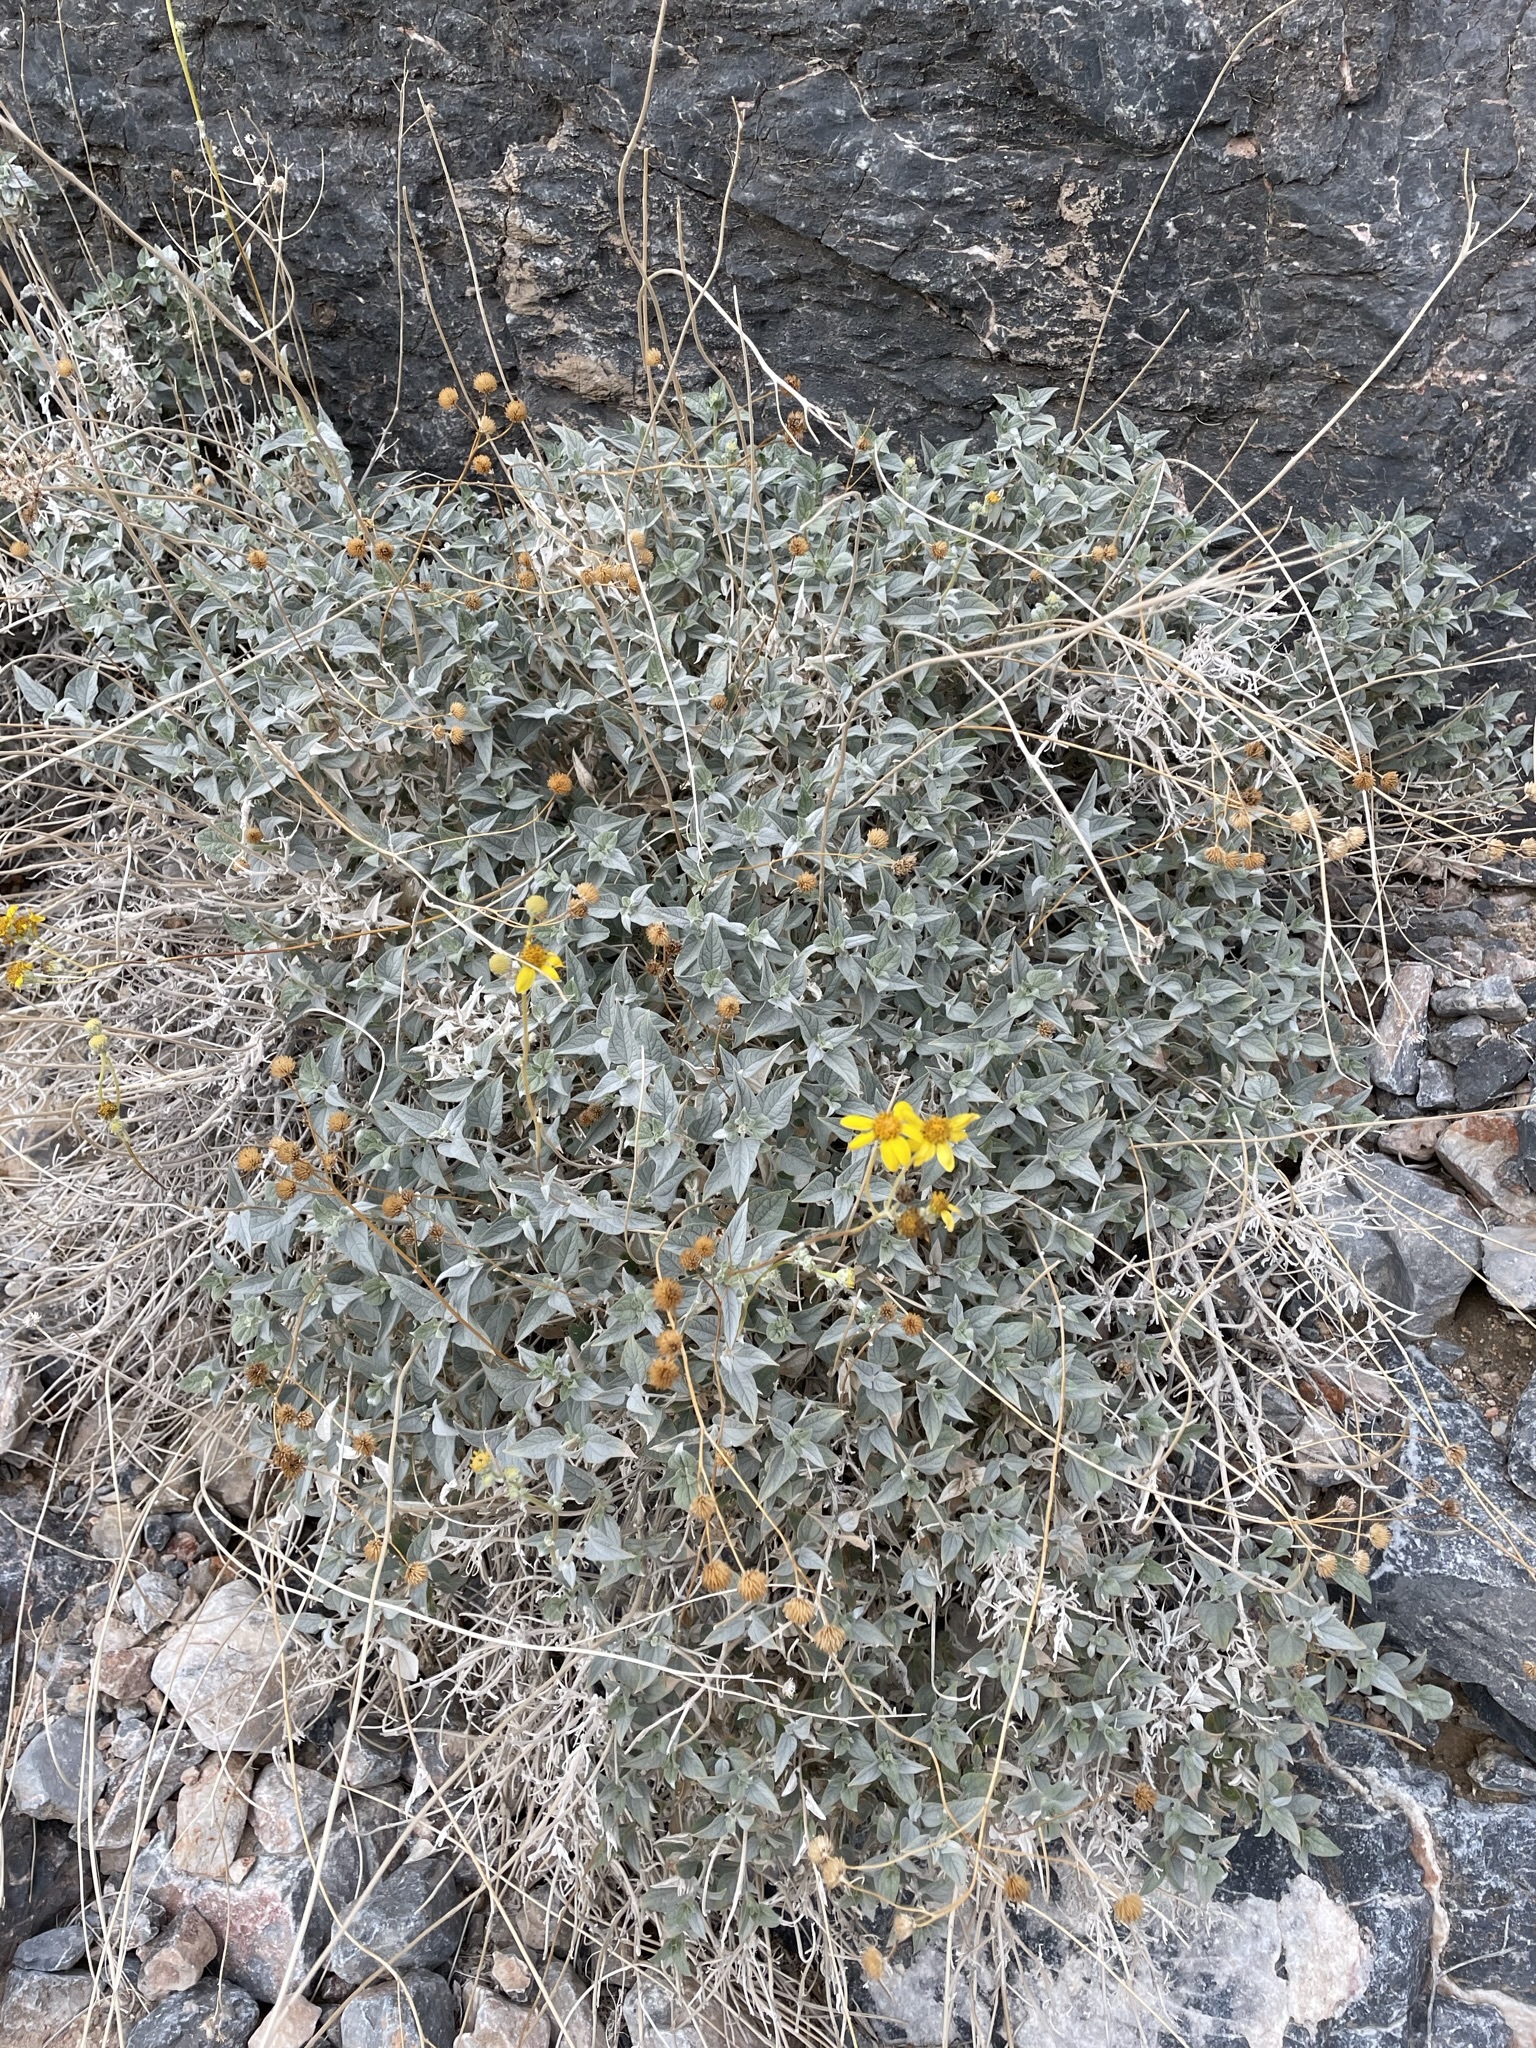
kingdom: Plantae
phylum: Tracheophyta
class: Magnoliopsida
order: Asterales
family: Asteraceae
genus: Bahiopsis
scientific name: Bahiopsis reticulata
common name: Death valley goldeneye
